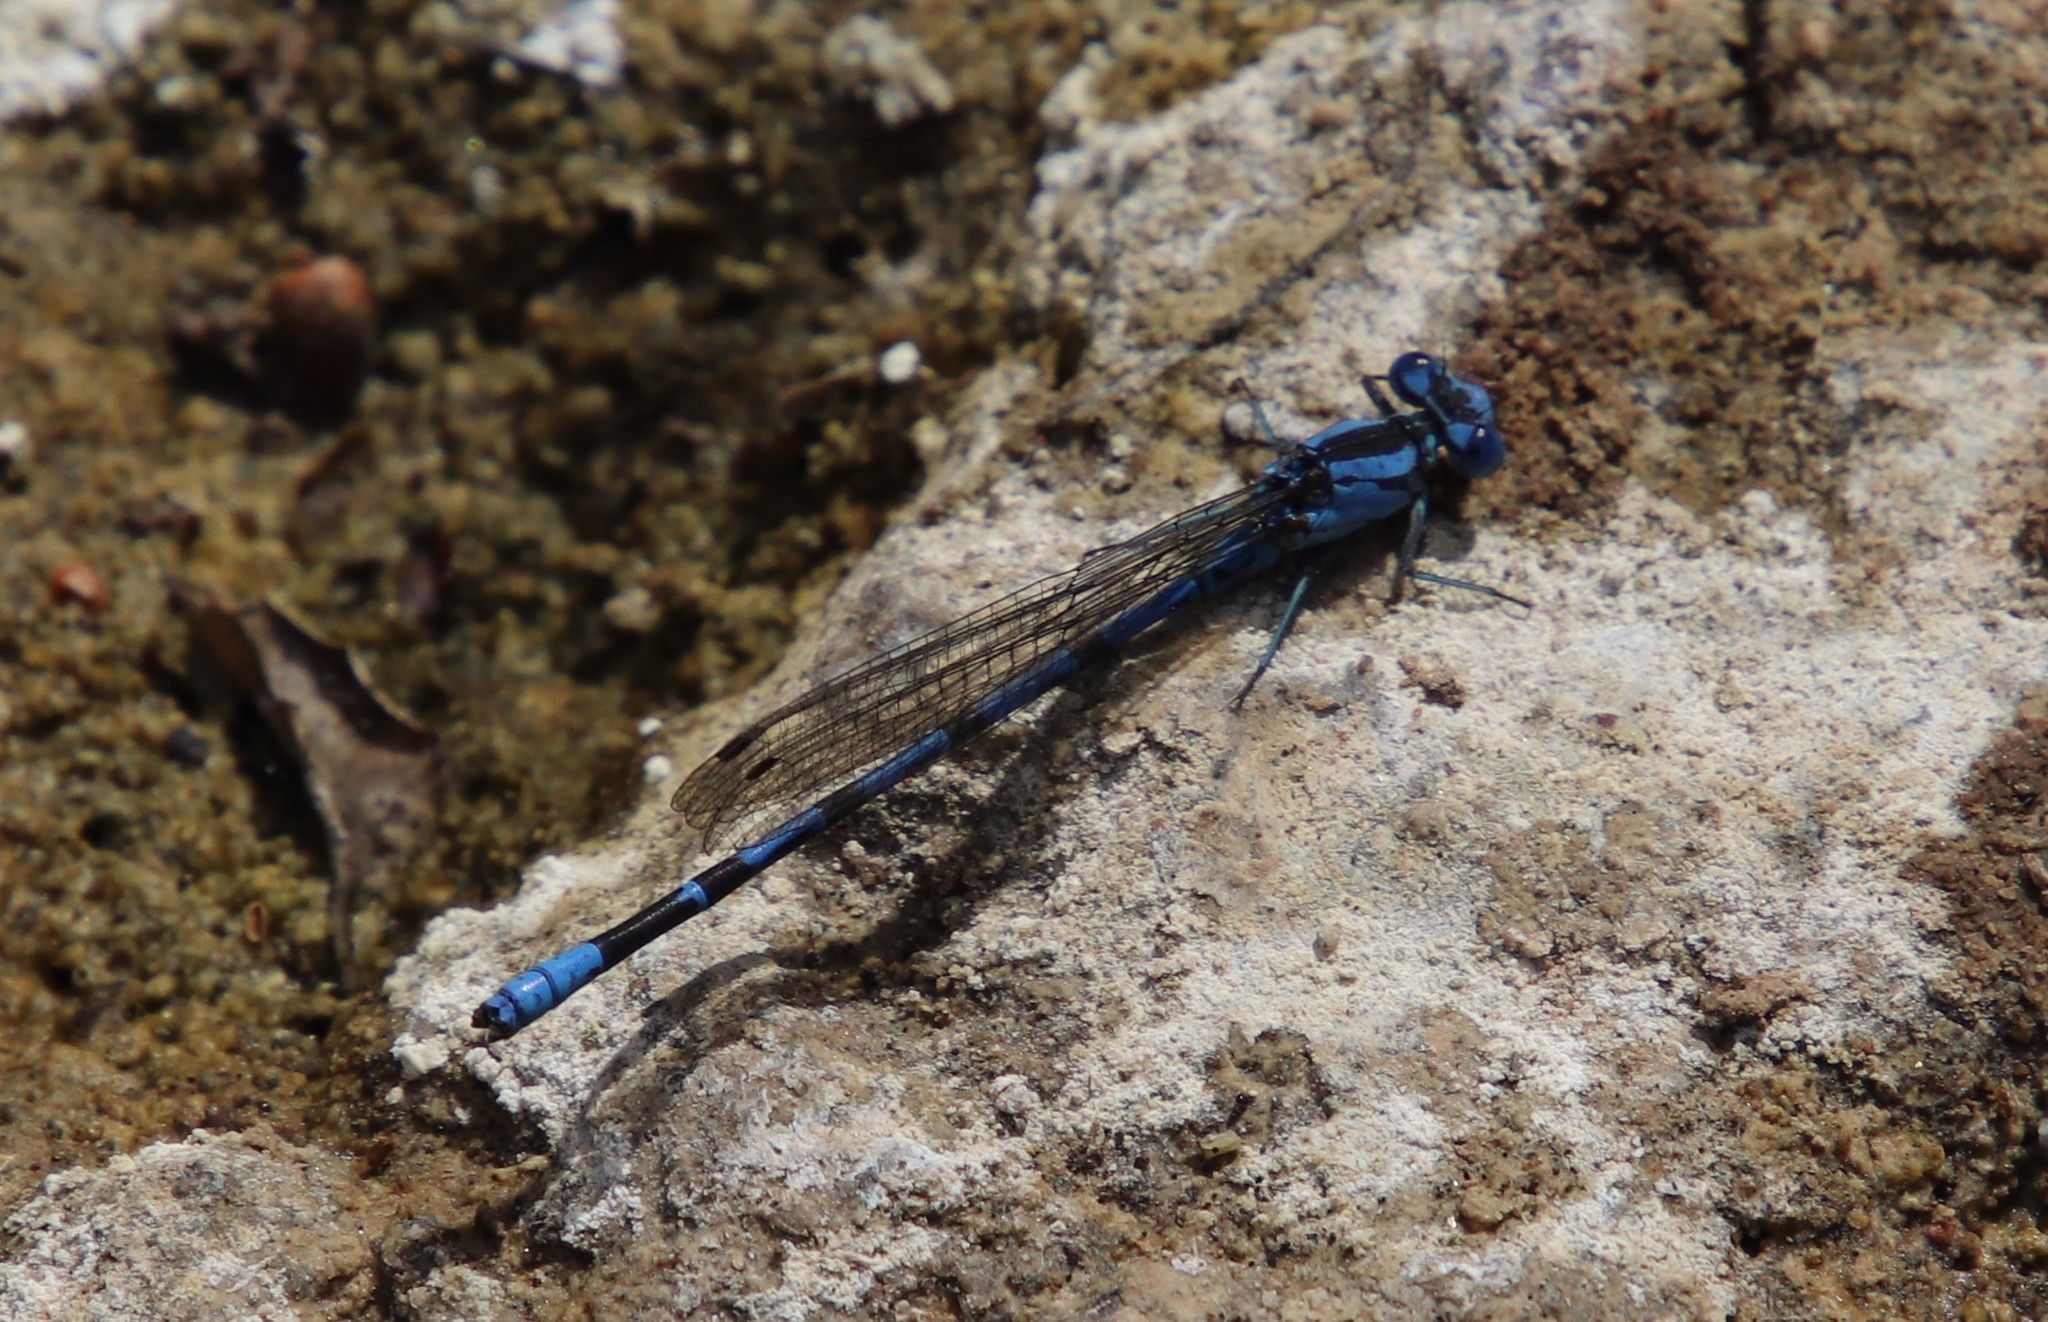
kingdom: Animalia
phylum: Arthropoda
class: Insecta
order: Odonata
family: Coenagrionidae
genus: Argia
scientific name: Argia vivida
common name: Vivid dancer
